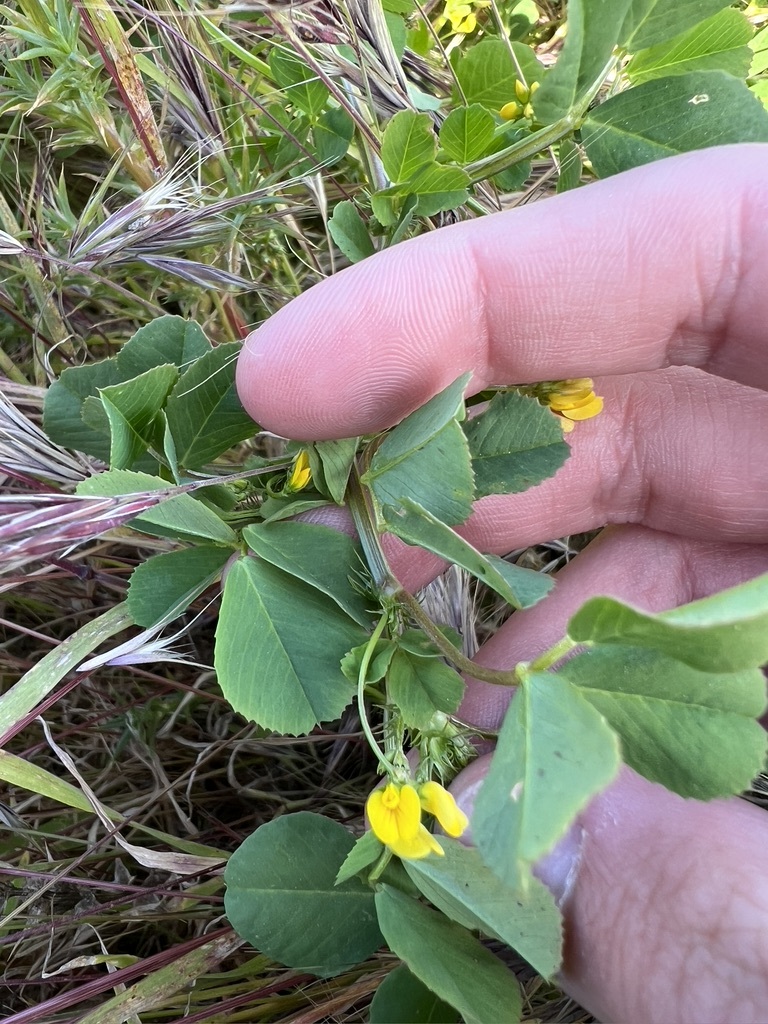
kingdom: Plantae
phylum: Tracheophyta
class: Magnoliopsida
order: Fabales
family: Fabaceae
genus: Medicago
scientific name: Medicago polymorpha
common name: Burclover
